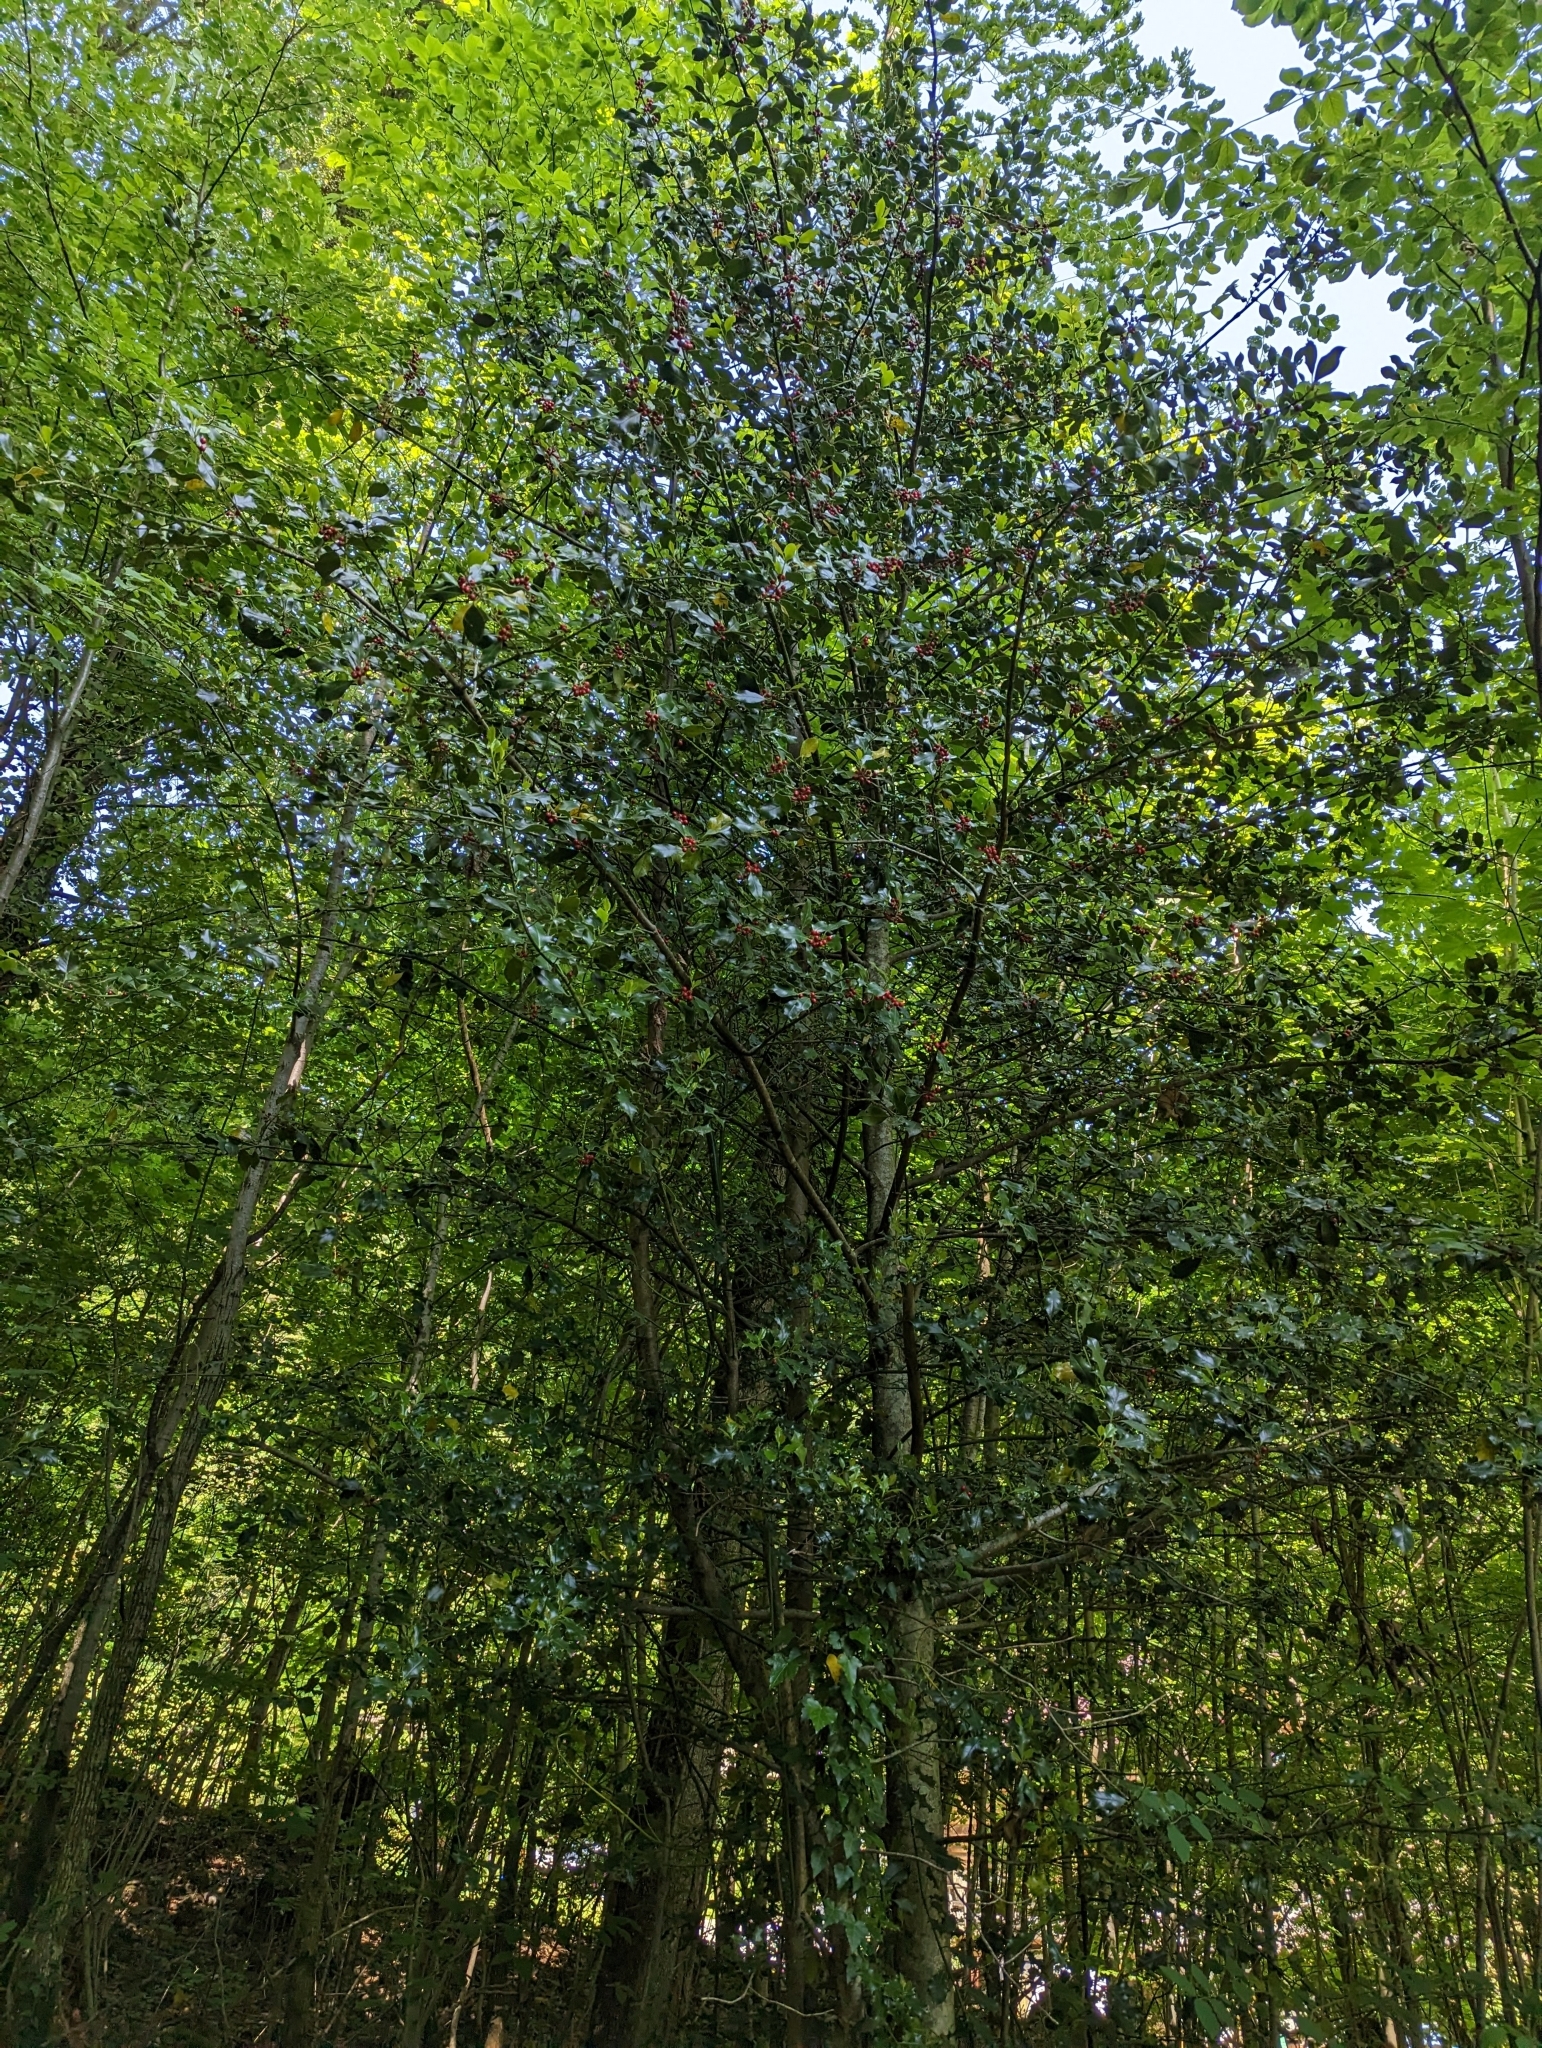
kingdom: Plantae
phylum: Tracheophyta
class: Magnoliopsida
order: Aquifoliales
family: Aquifoliaceae
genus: Ilex
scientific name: Ilex aquifolium
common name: English holly
